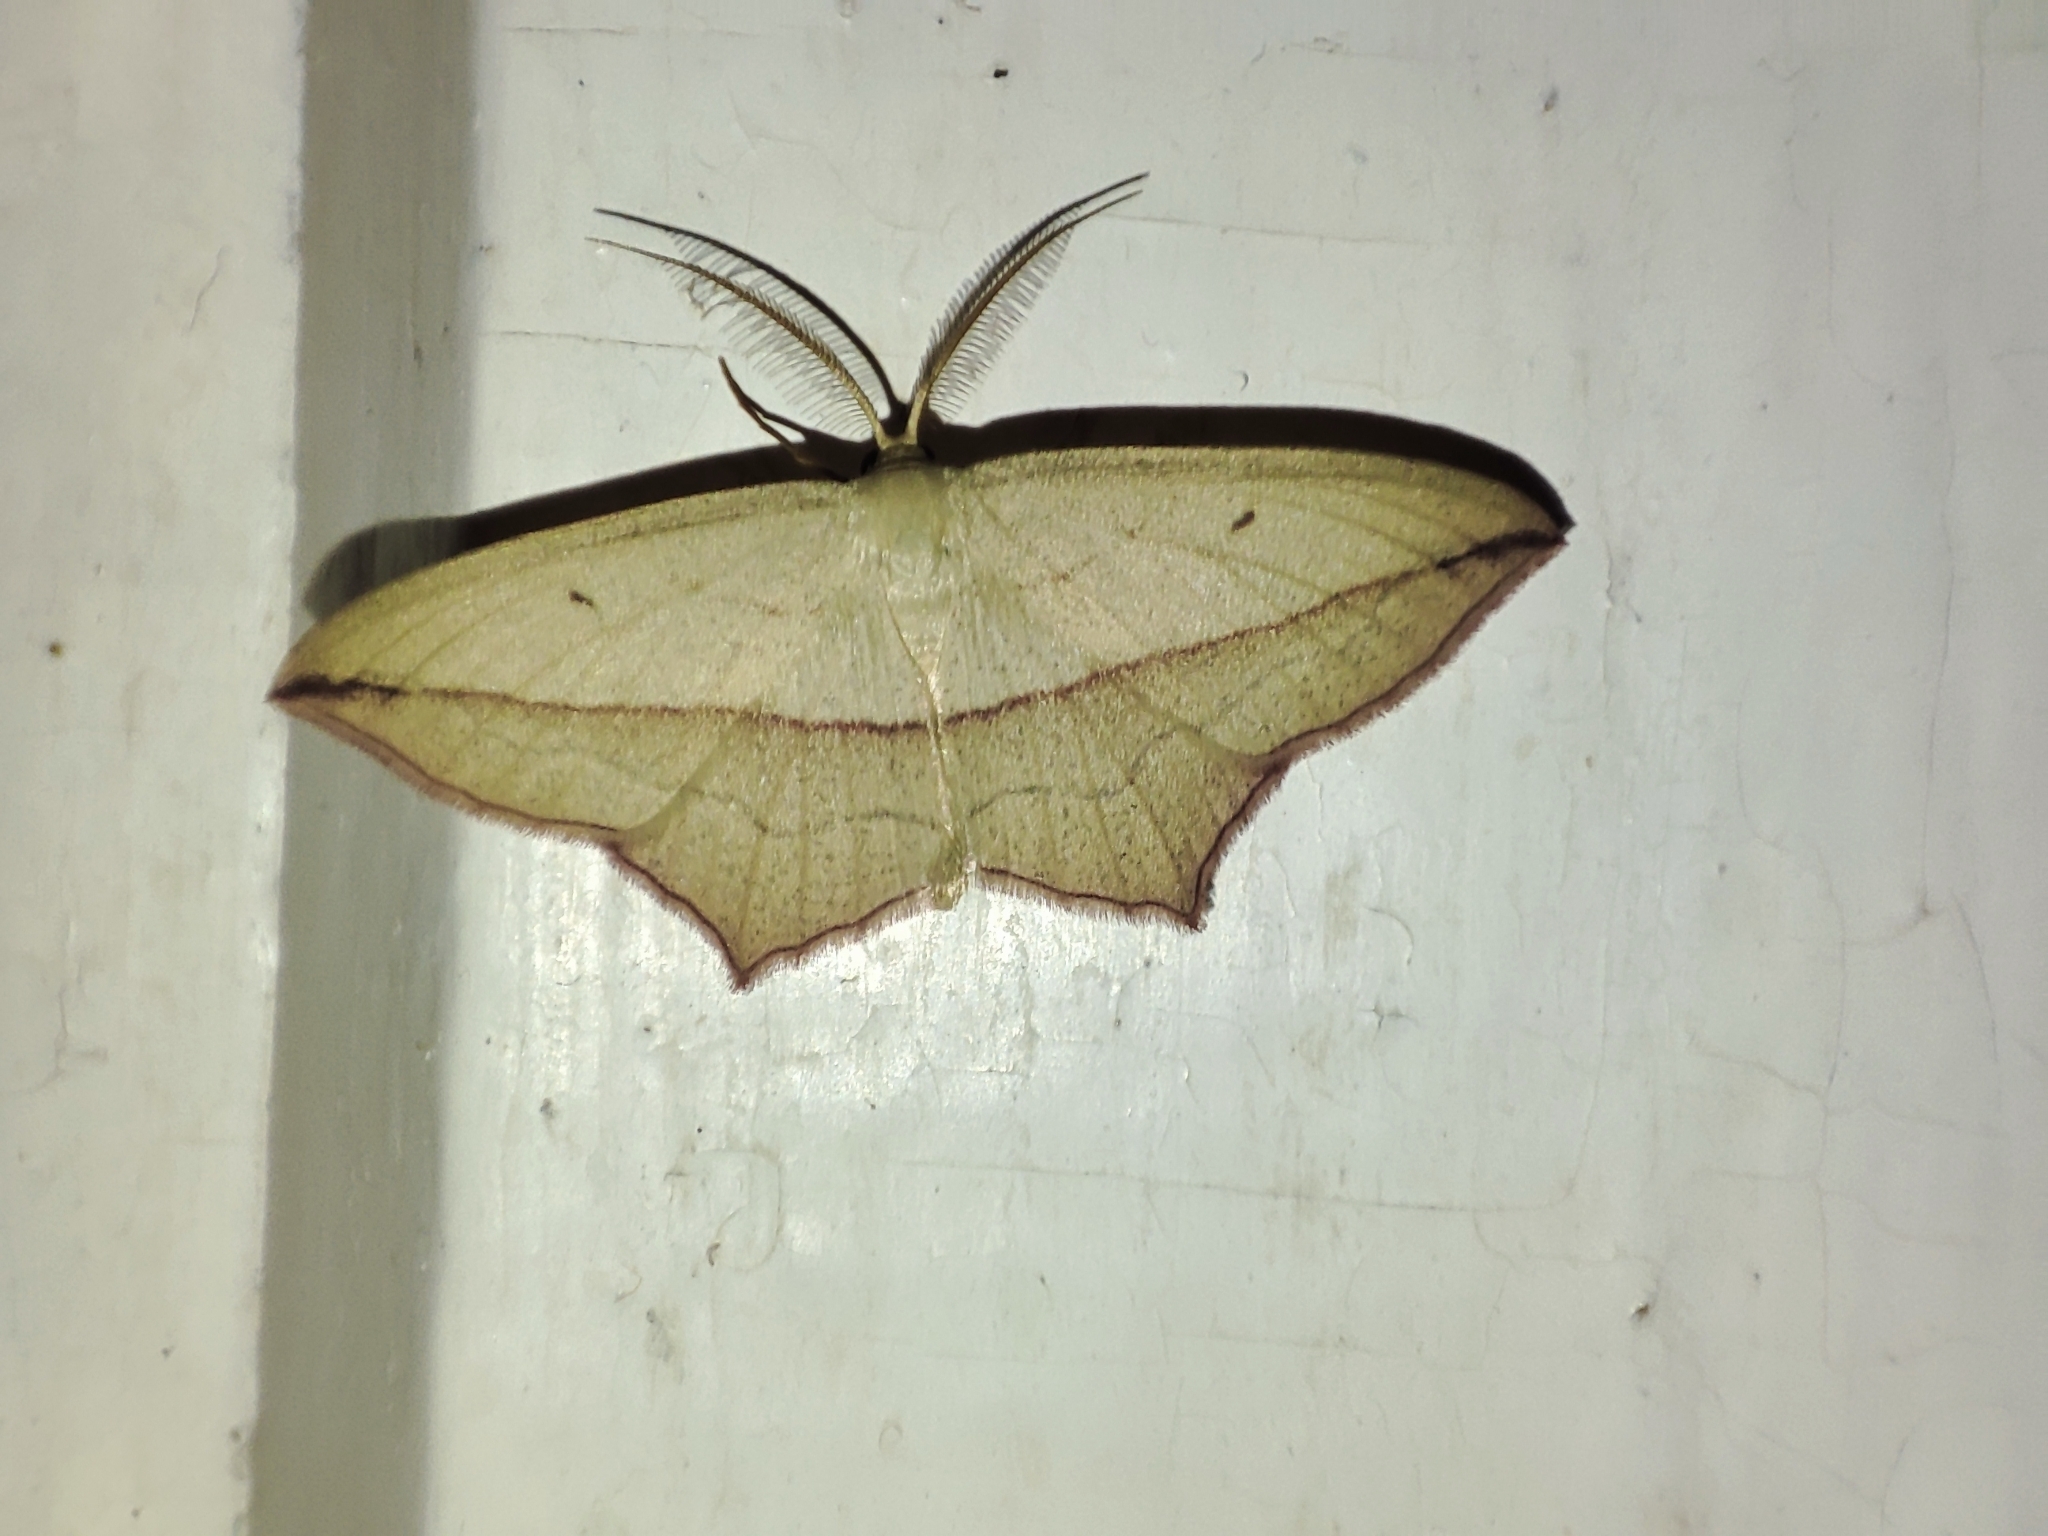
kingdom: Animalia
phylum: Arthropoda
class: Insecta
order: Lepidoptera
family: Geometridae
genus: Timandra
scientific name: Timandra comae
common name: Blood-vein
